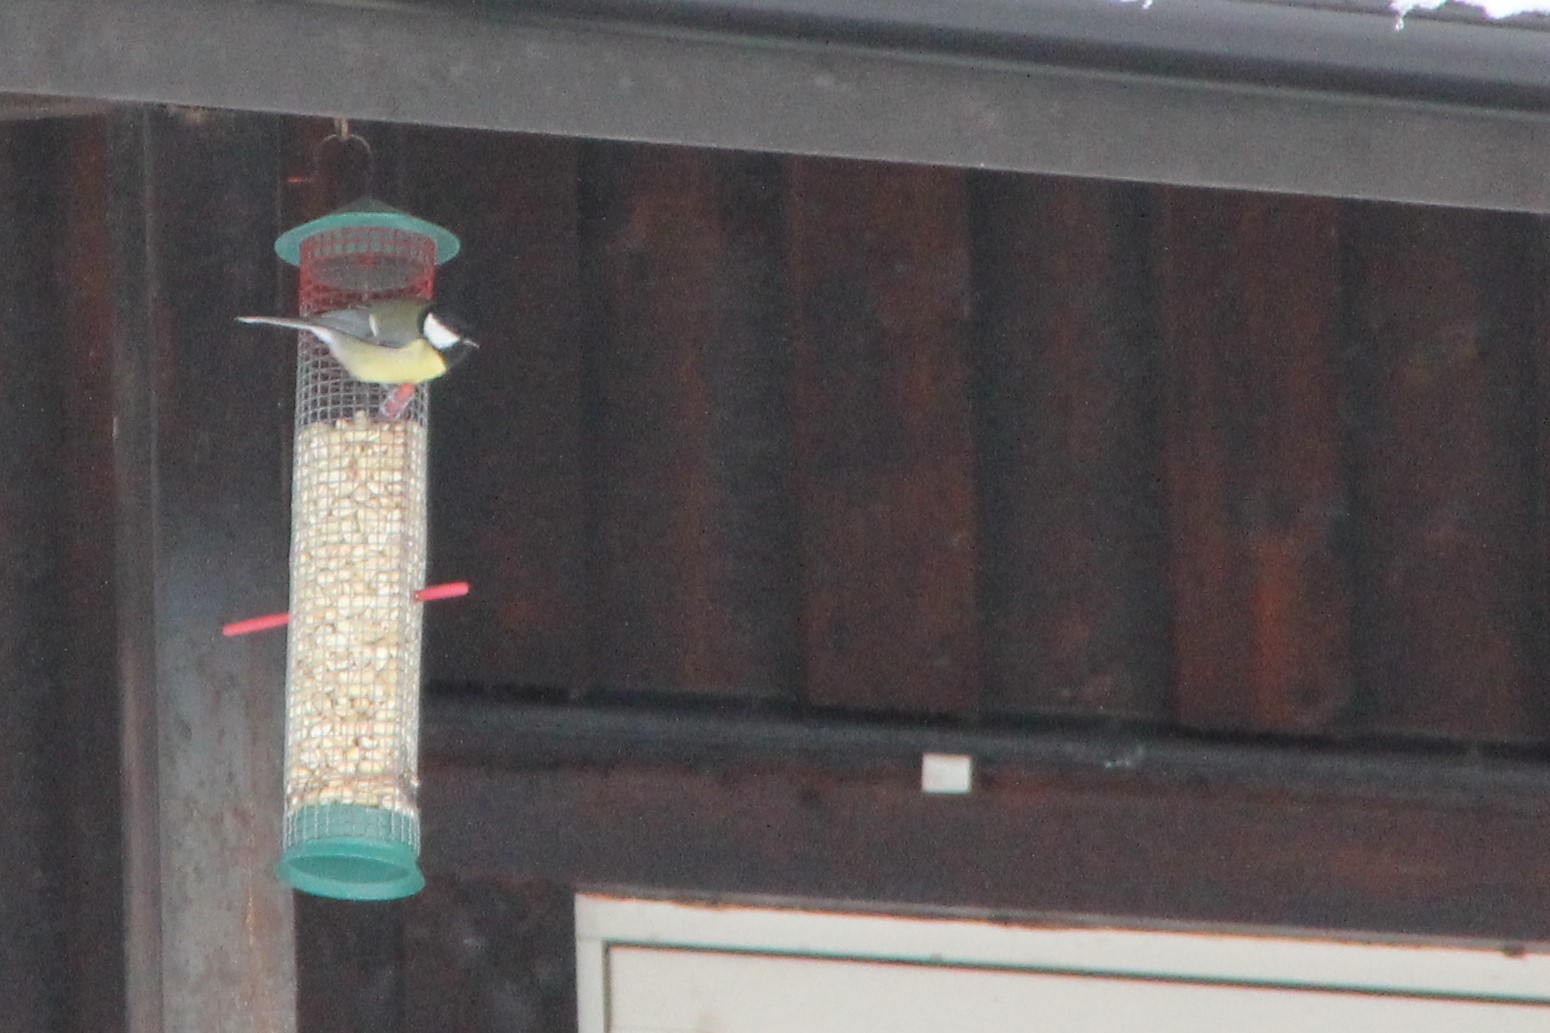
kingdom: Animalia
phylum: Chordata
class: Aves
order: Passeriformes
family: Paridae
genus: Parus
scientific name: Parus major
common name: Great tit
